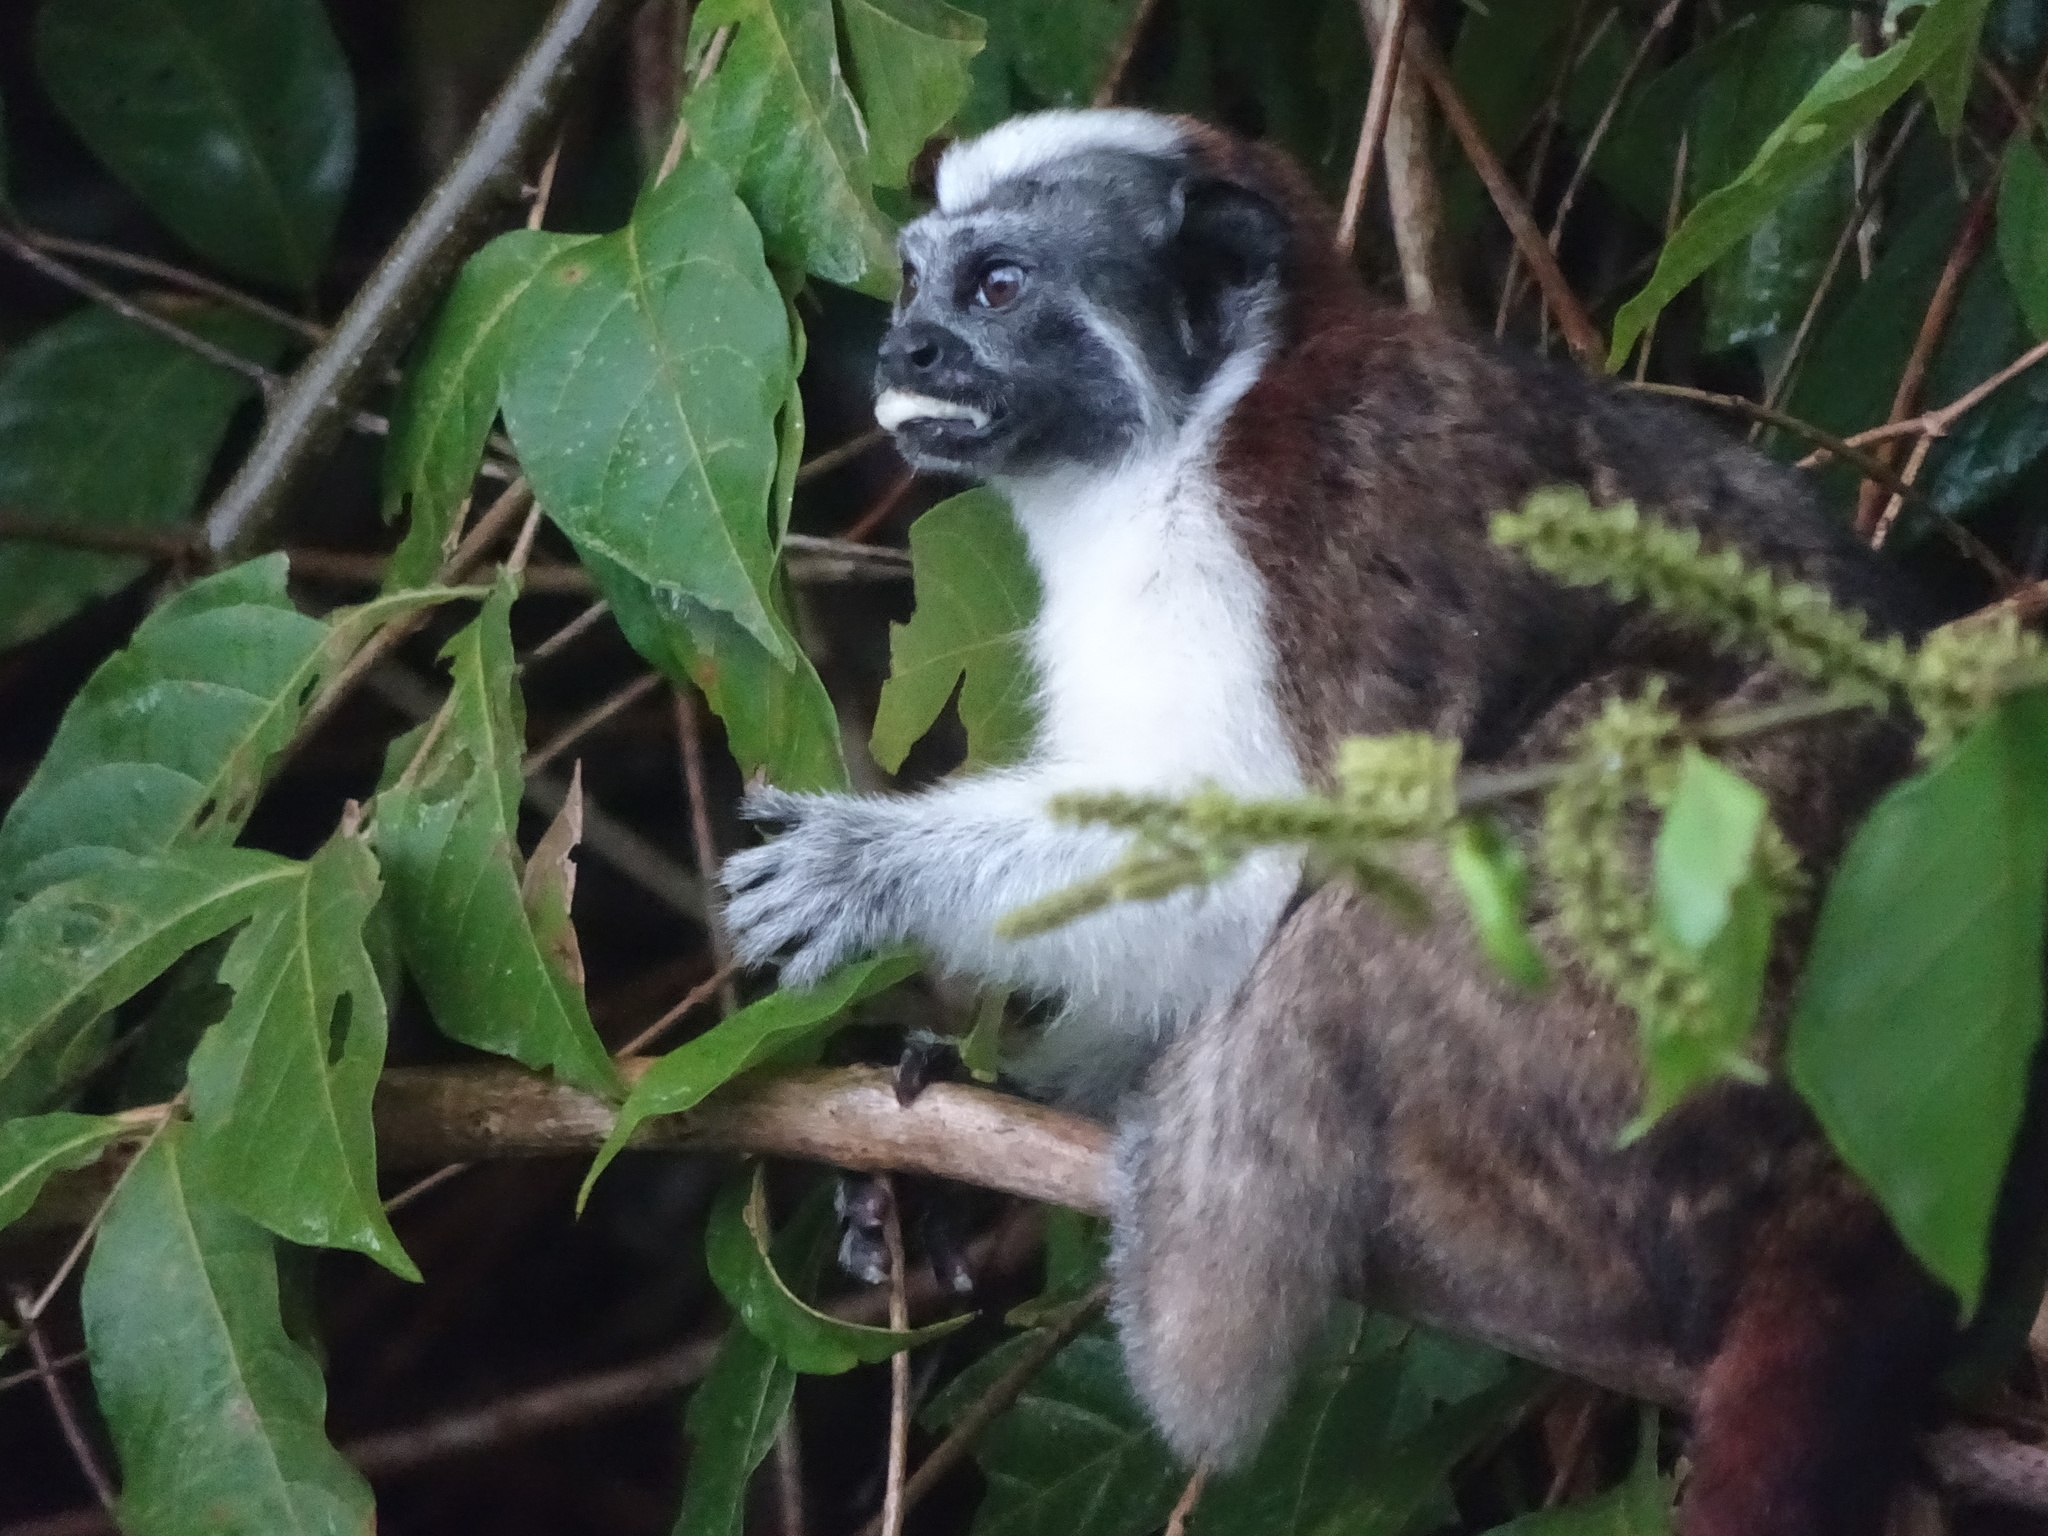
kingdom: Animalia
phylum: Chordata
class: Mammalia
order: Primates
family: Callitrichidae
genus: Saguinus
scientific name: Saguinus geoffroyi
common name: Geoffroy s tamarin
